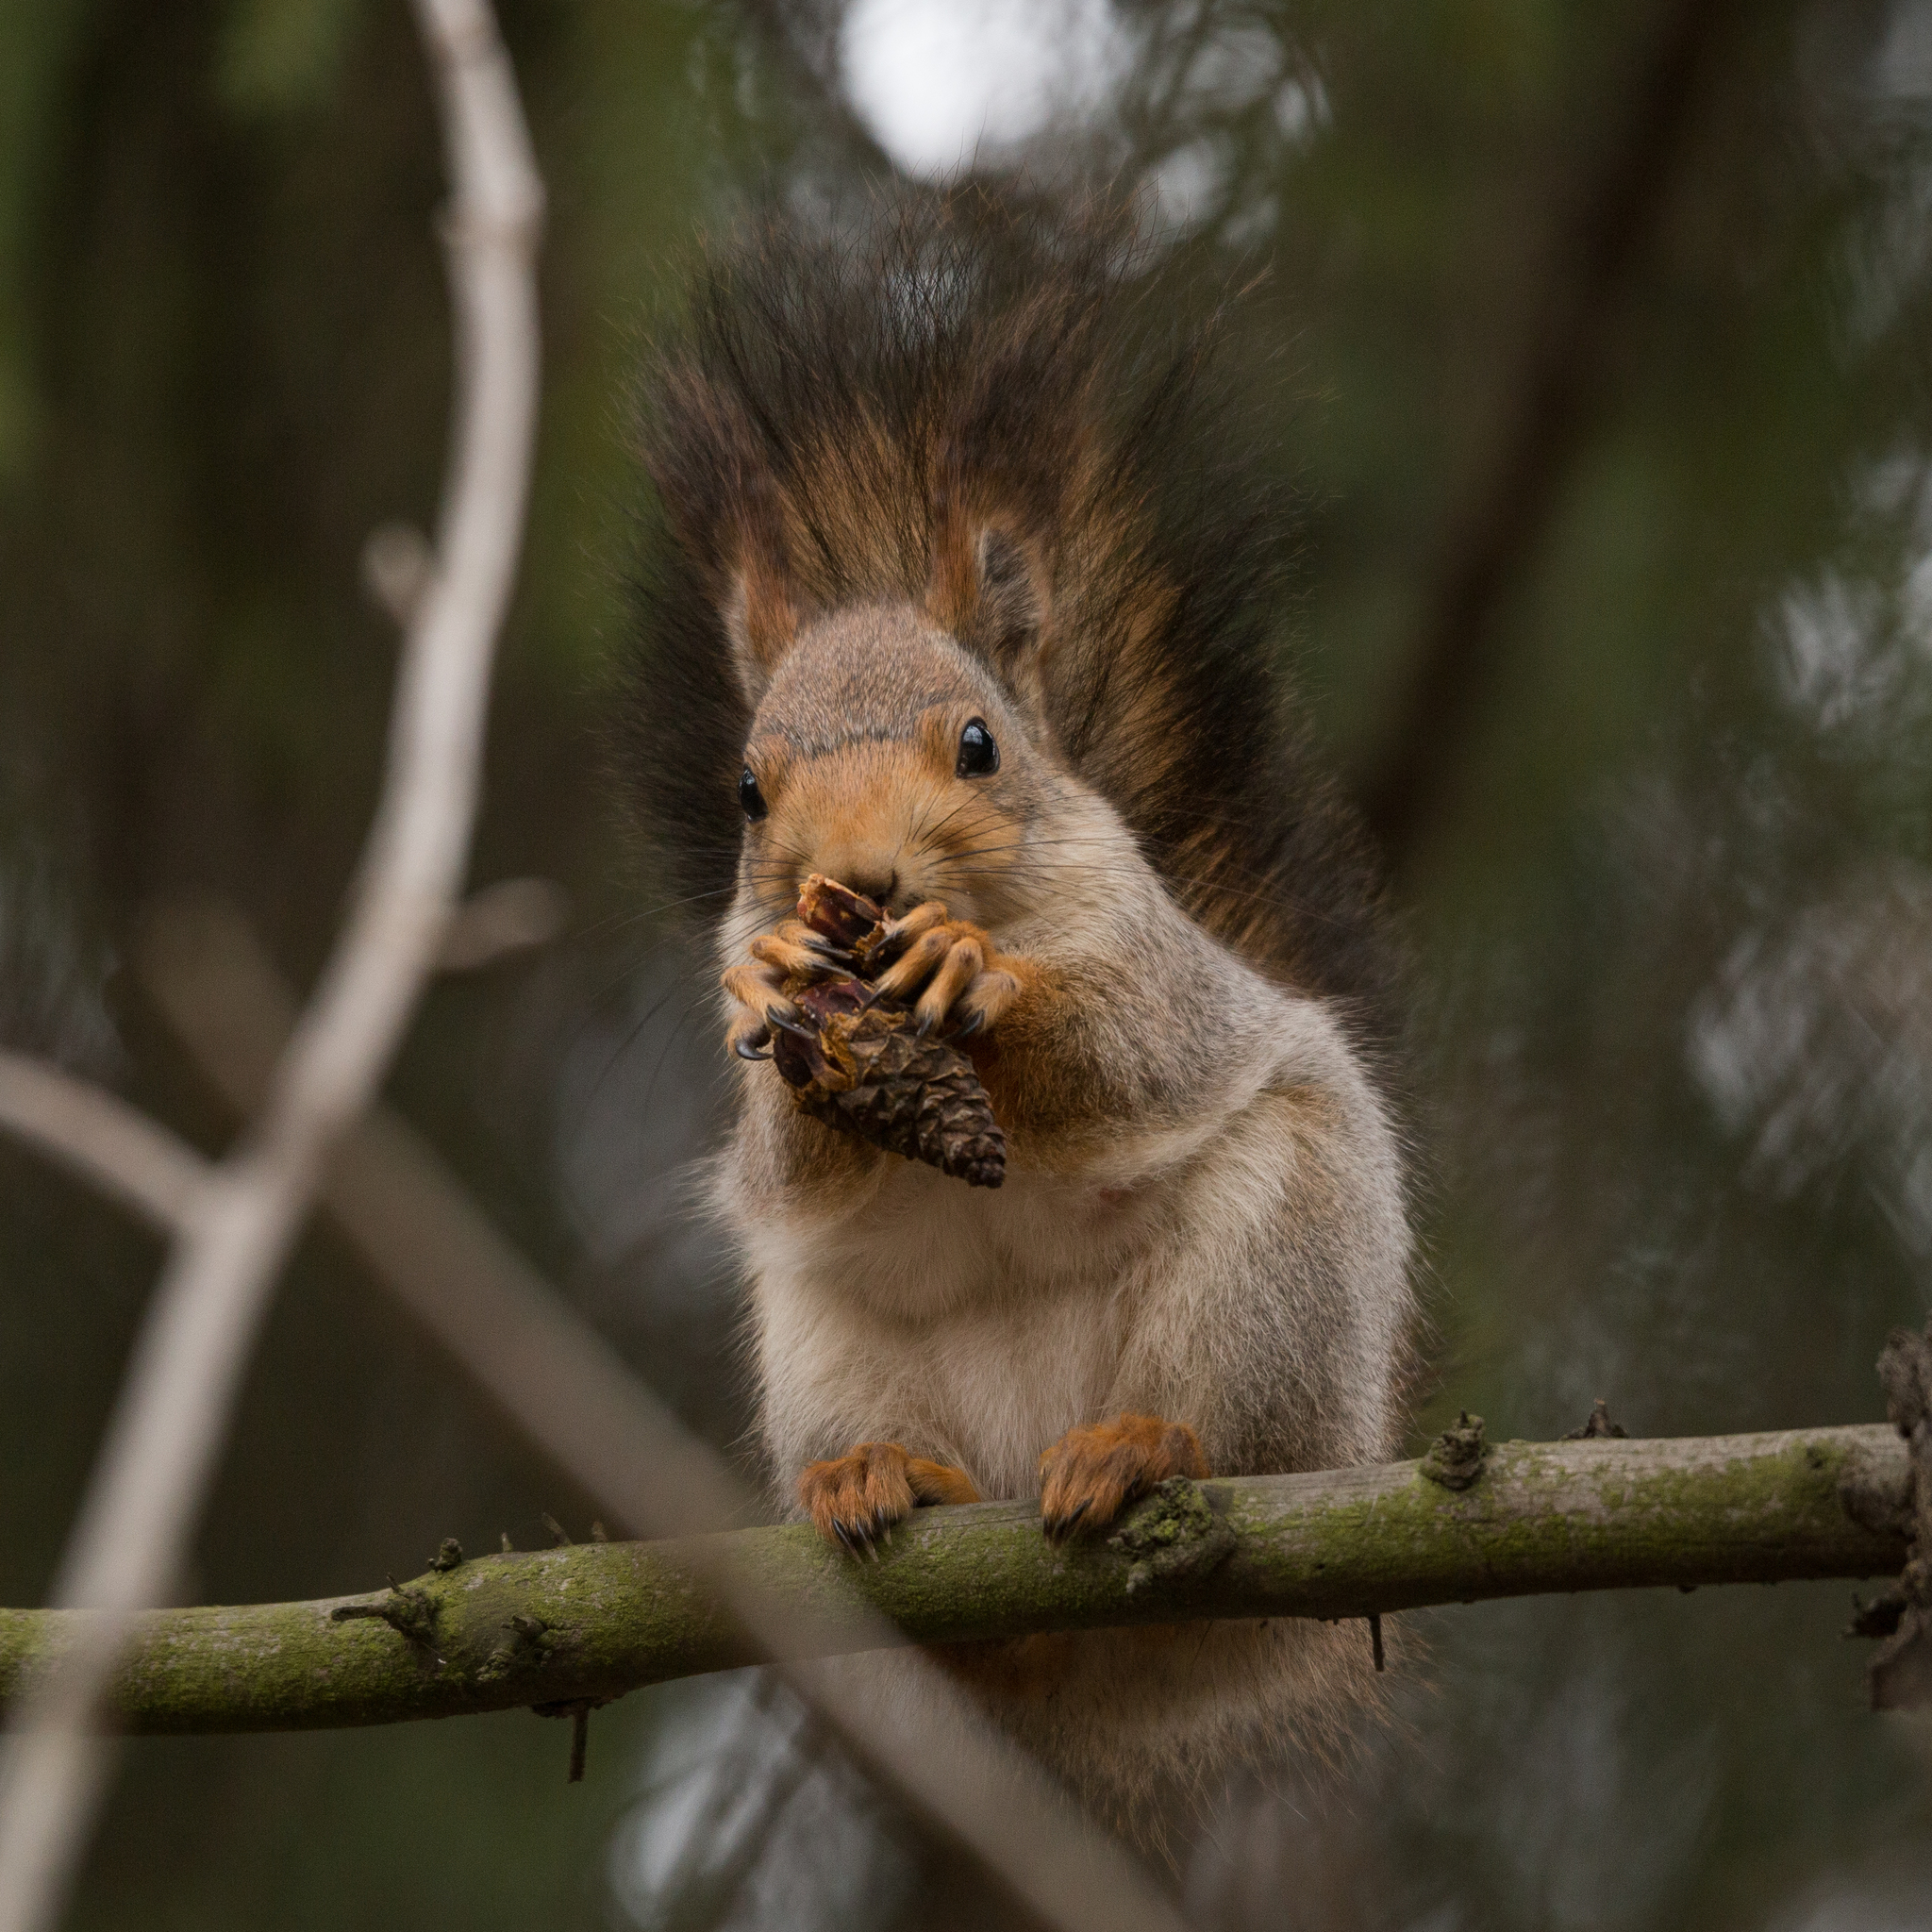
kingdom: Animalia
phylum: Chordata
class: Mammalia
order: Rodentia
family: Sciuridae
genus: Sciurus
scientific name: Sciurus vulgaris
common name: Eurasian red squirrel
